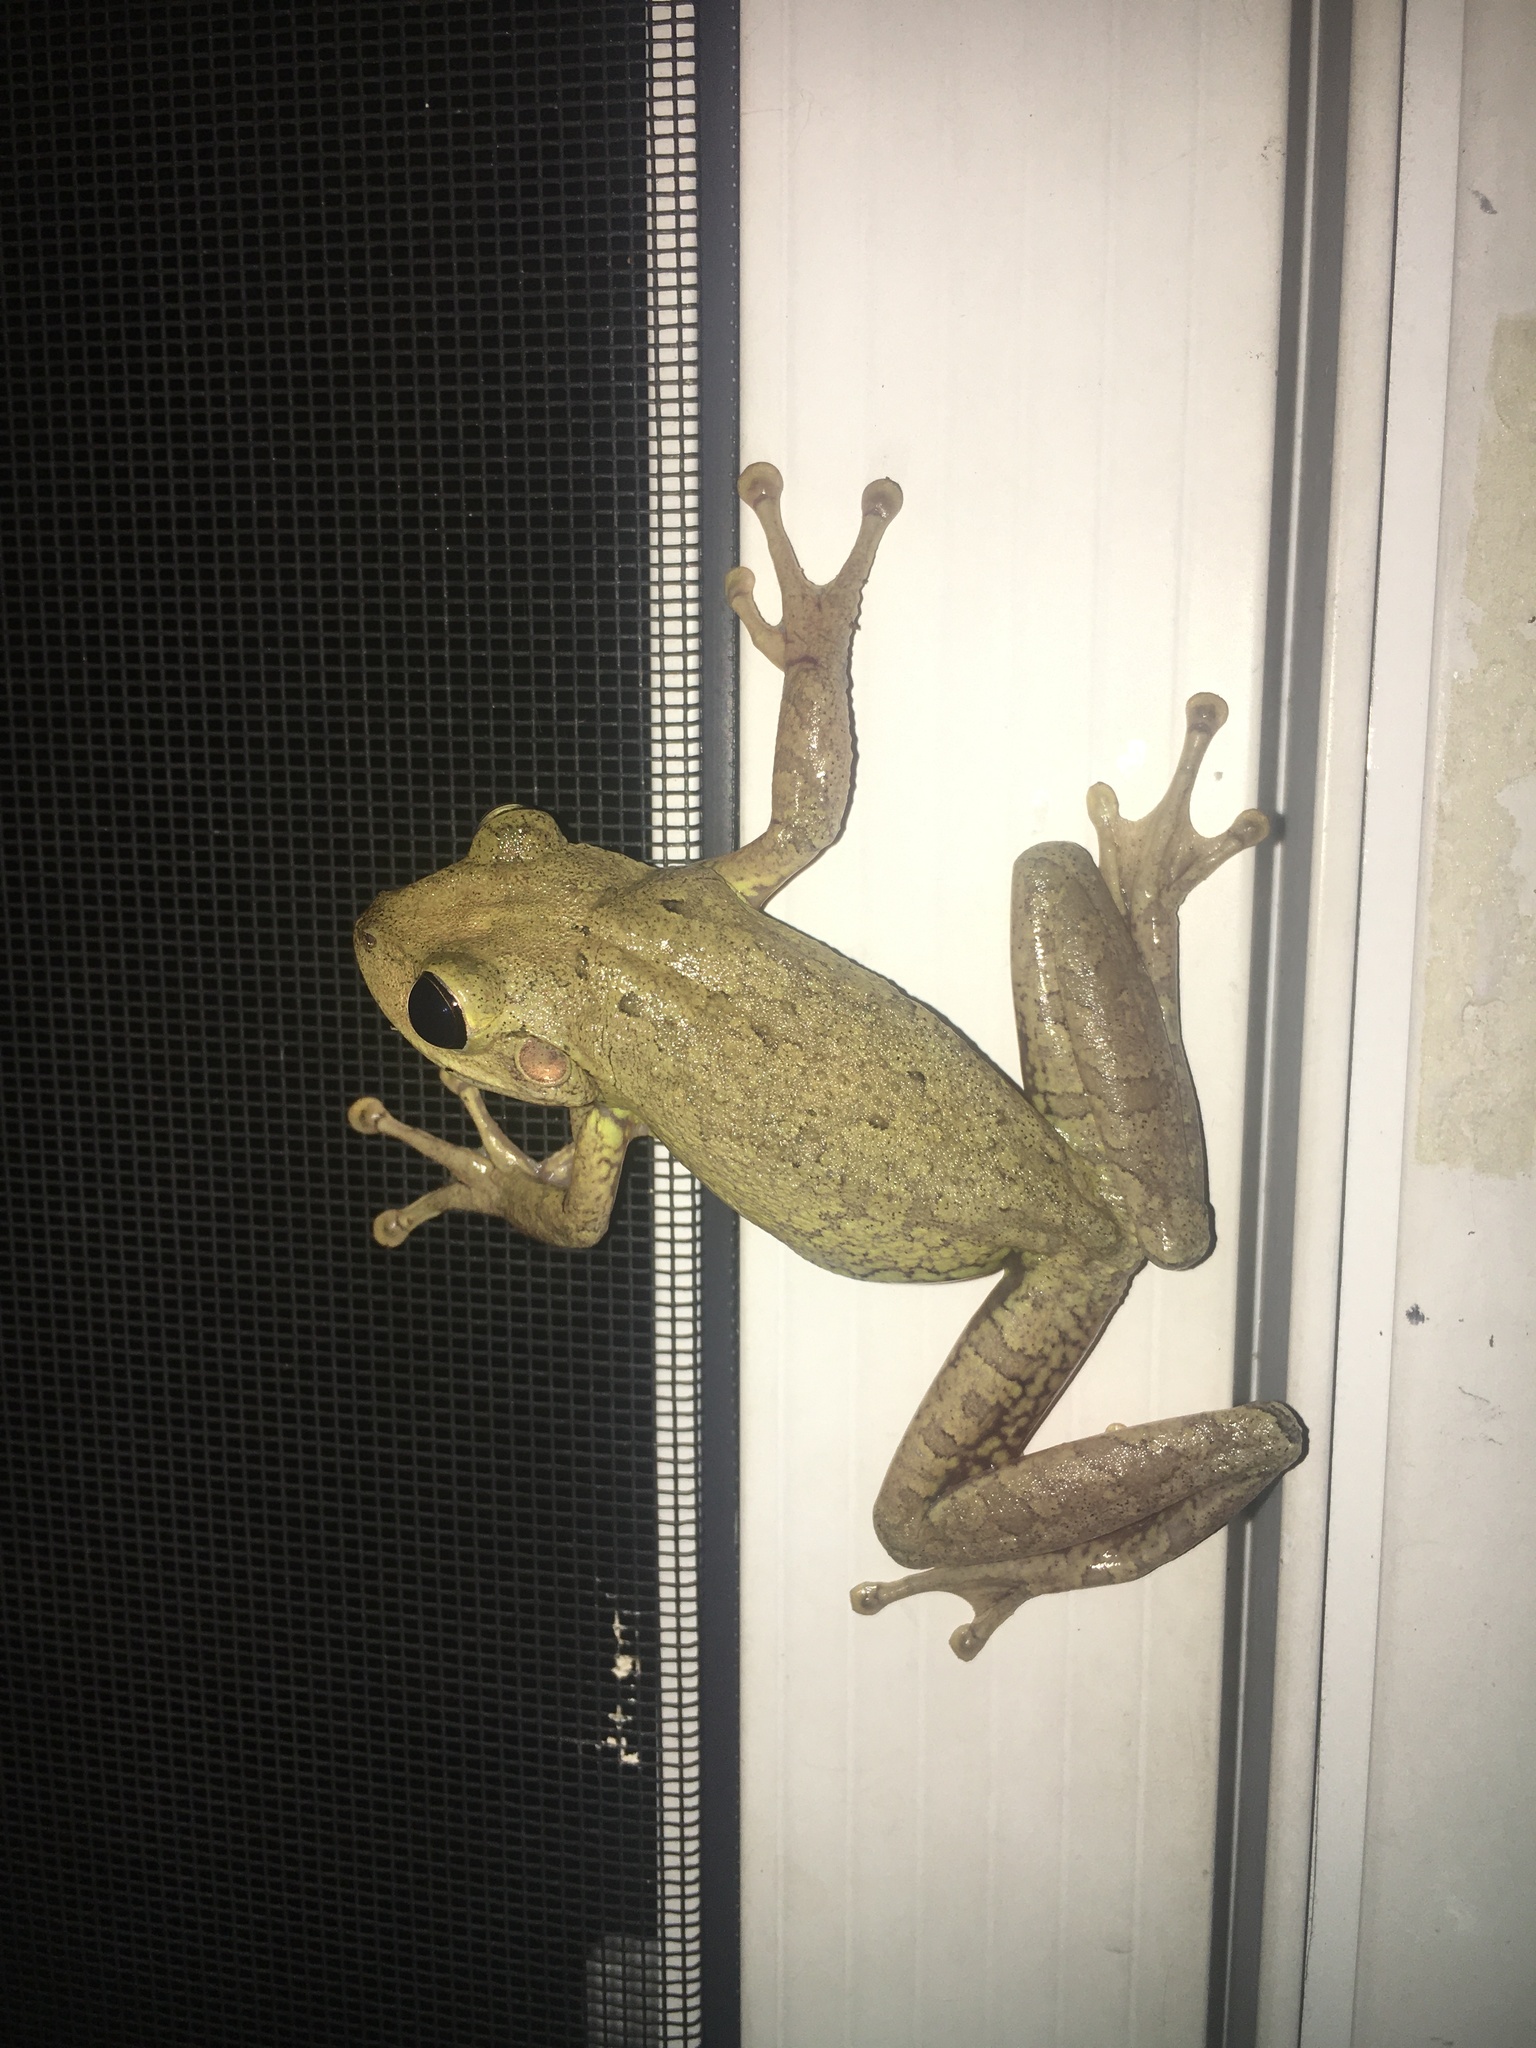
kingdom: Animalia
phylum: Chordata
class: Amphibia
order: Anura
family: Hylidae
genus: Osteopilus
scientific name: Osteopilus septentrionalis
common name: Cuban treefrog
